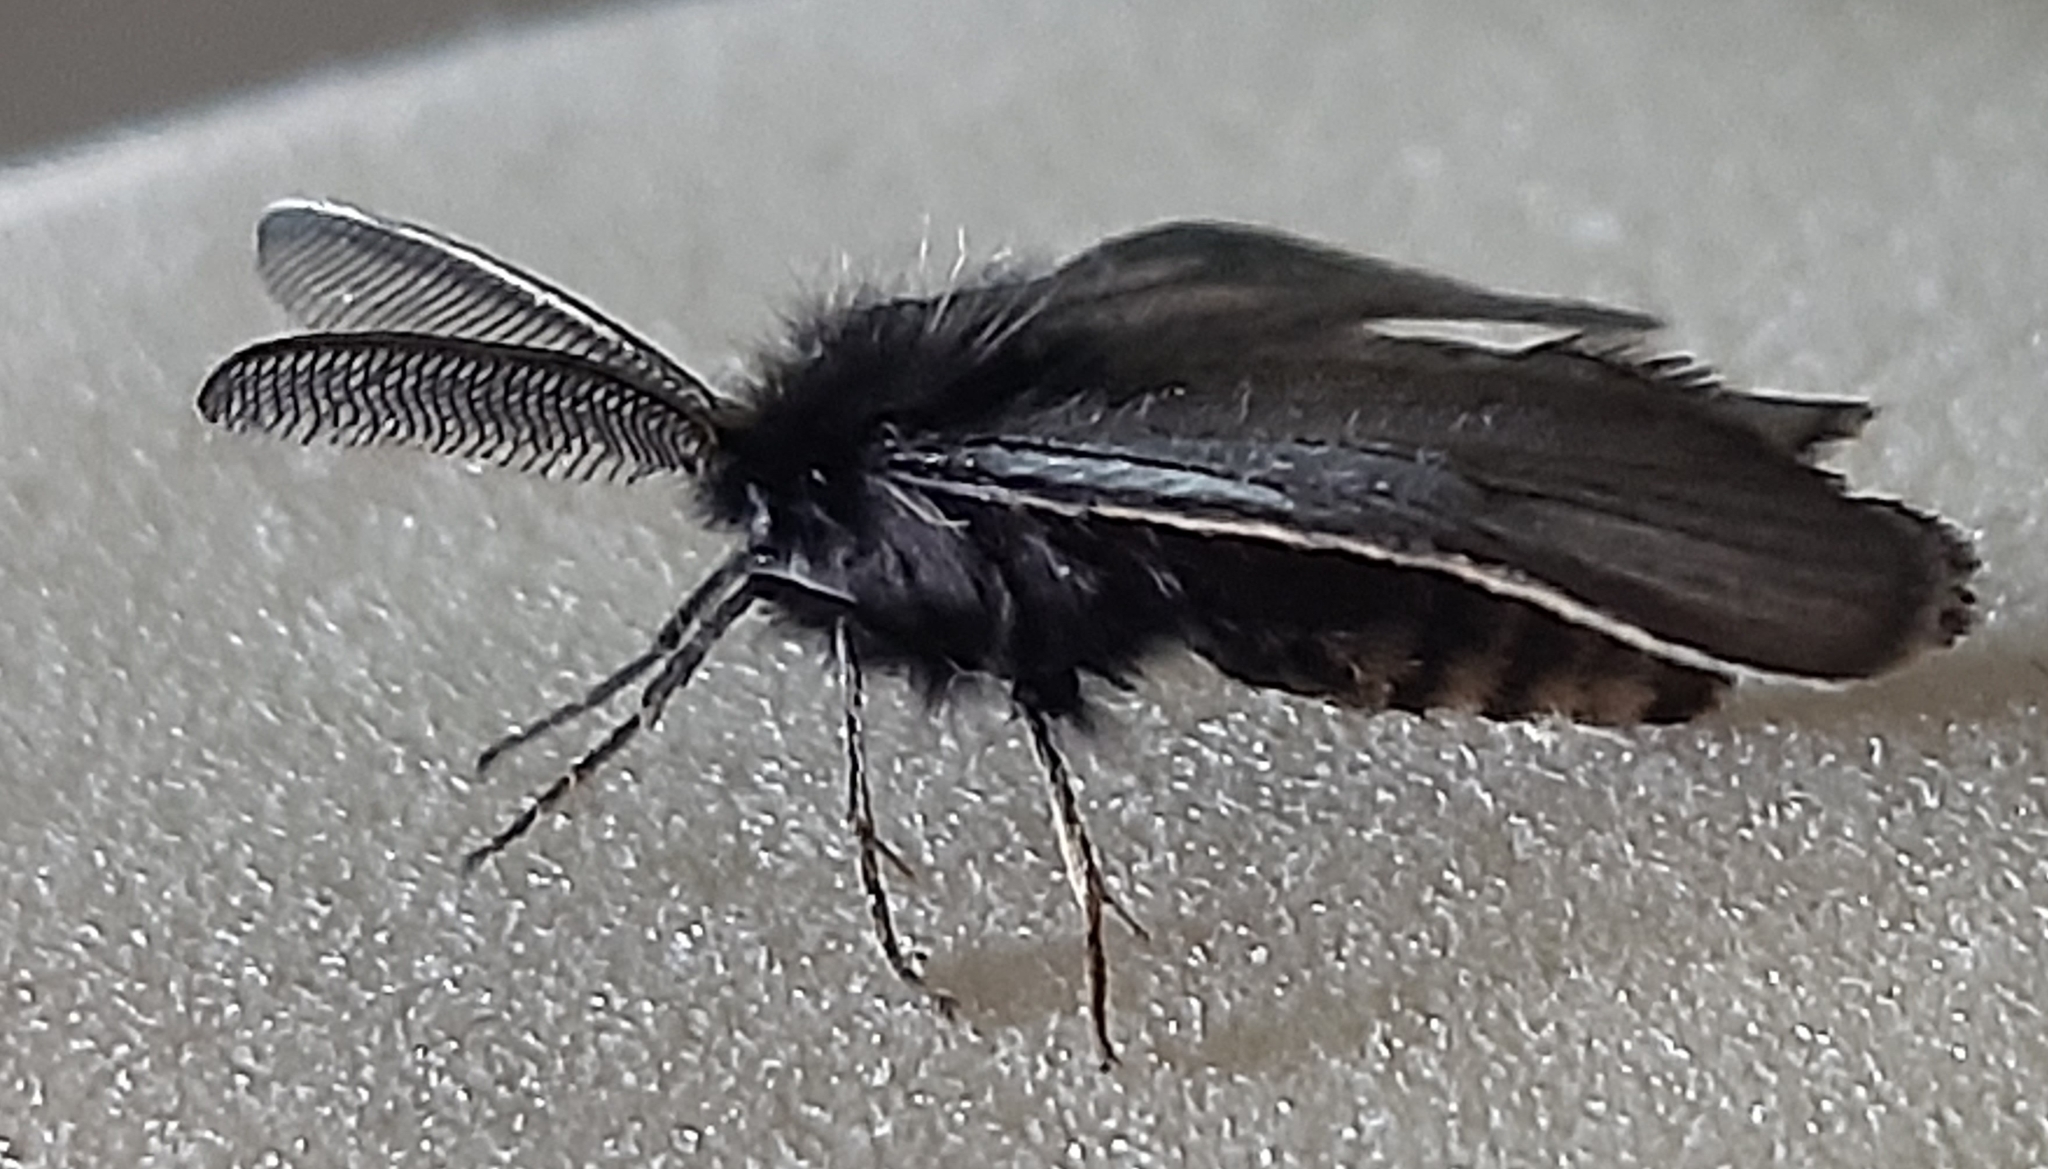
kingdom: Animalia
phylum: Arthropoda
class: Insecta
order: Lepidoptera
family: Erebidae
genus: Penthophera
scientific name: Penthophera morio
